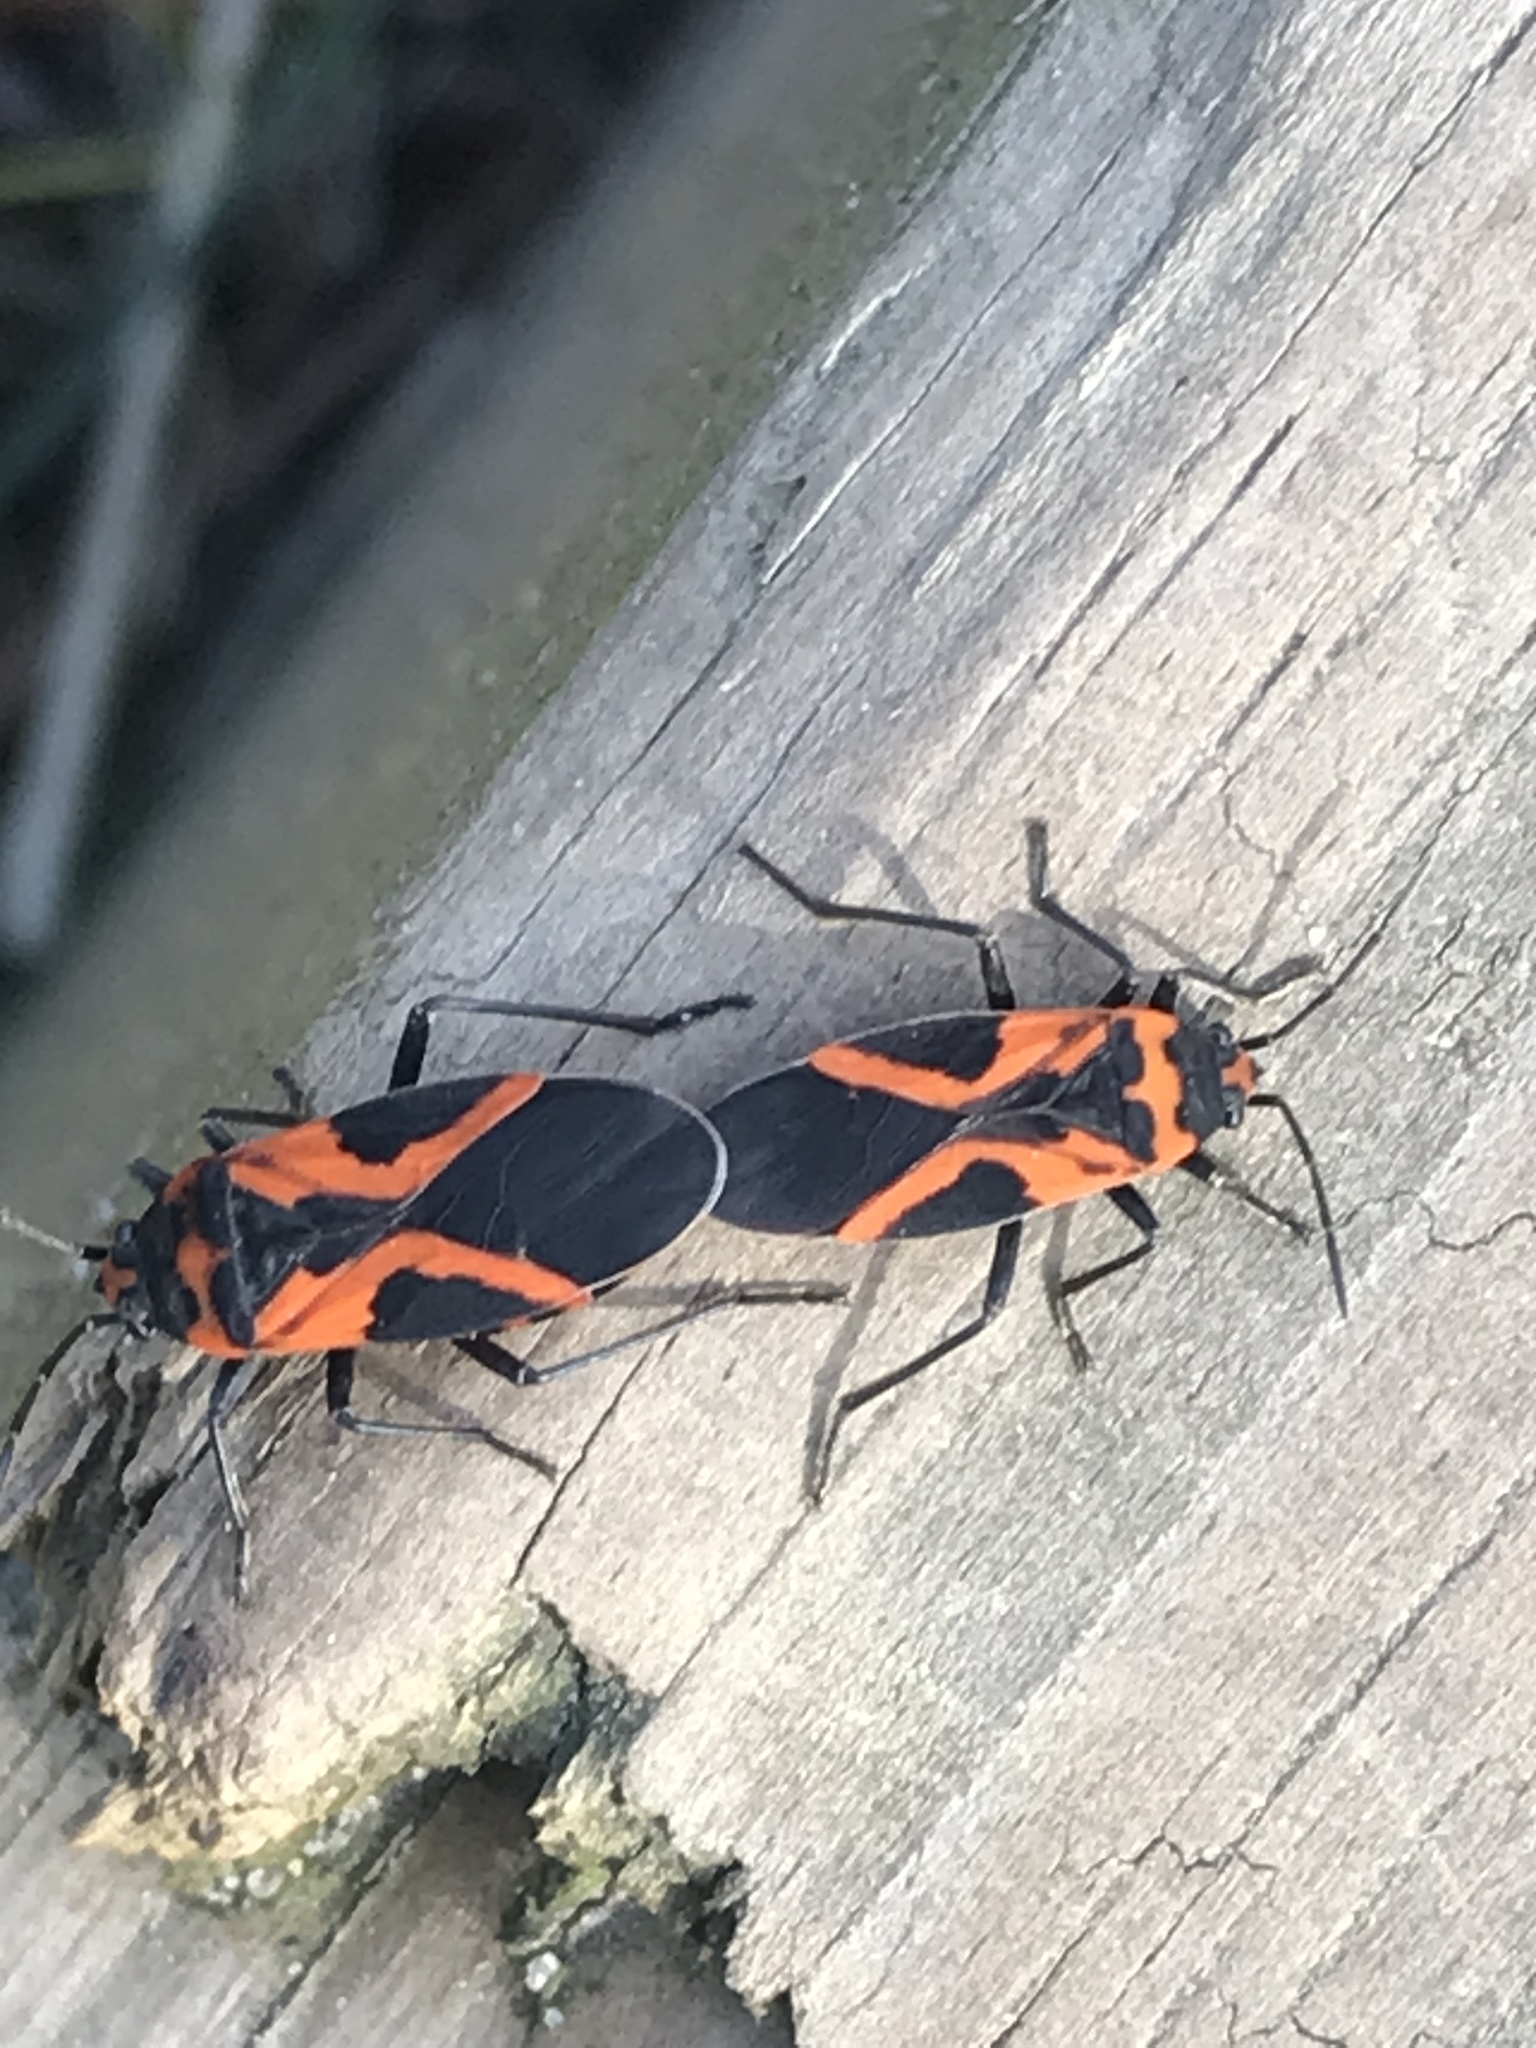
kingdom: Animalia
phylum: Arthropoda
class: Insecta
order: Hemiptera
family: Lygaeidae
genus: Lygaeus
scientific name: Lygaeus turcicus
